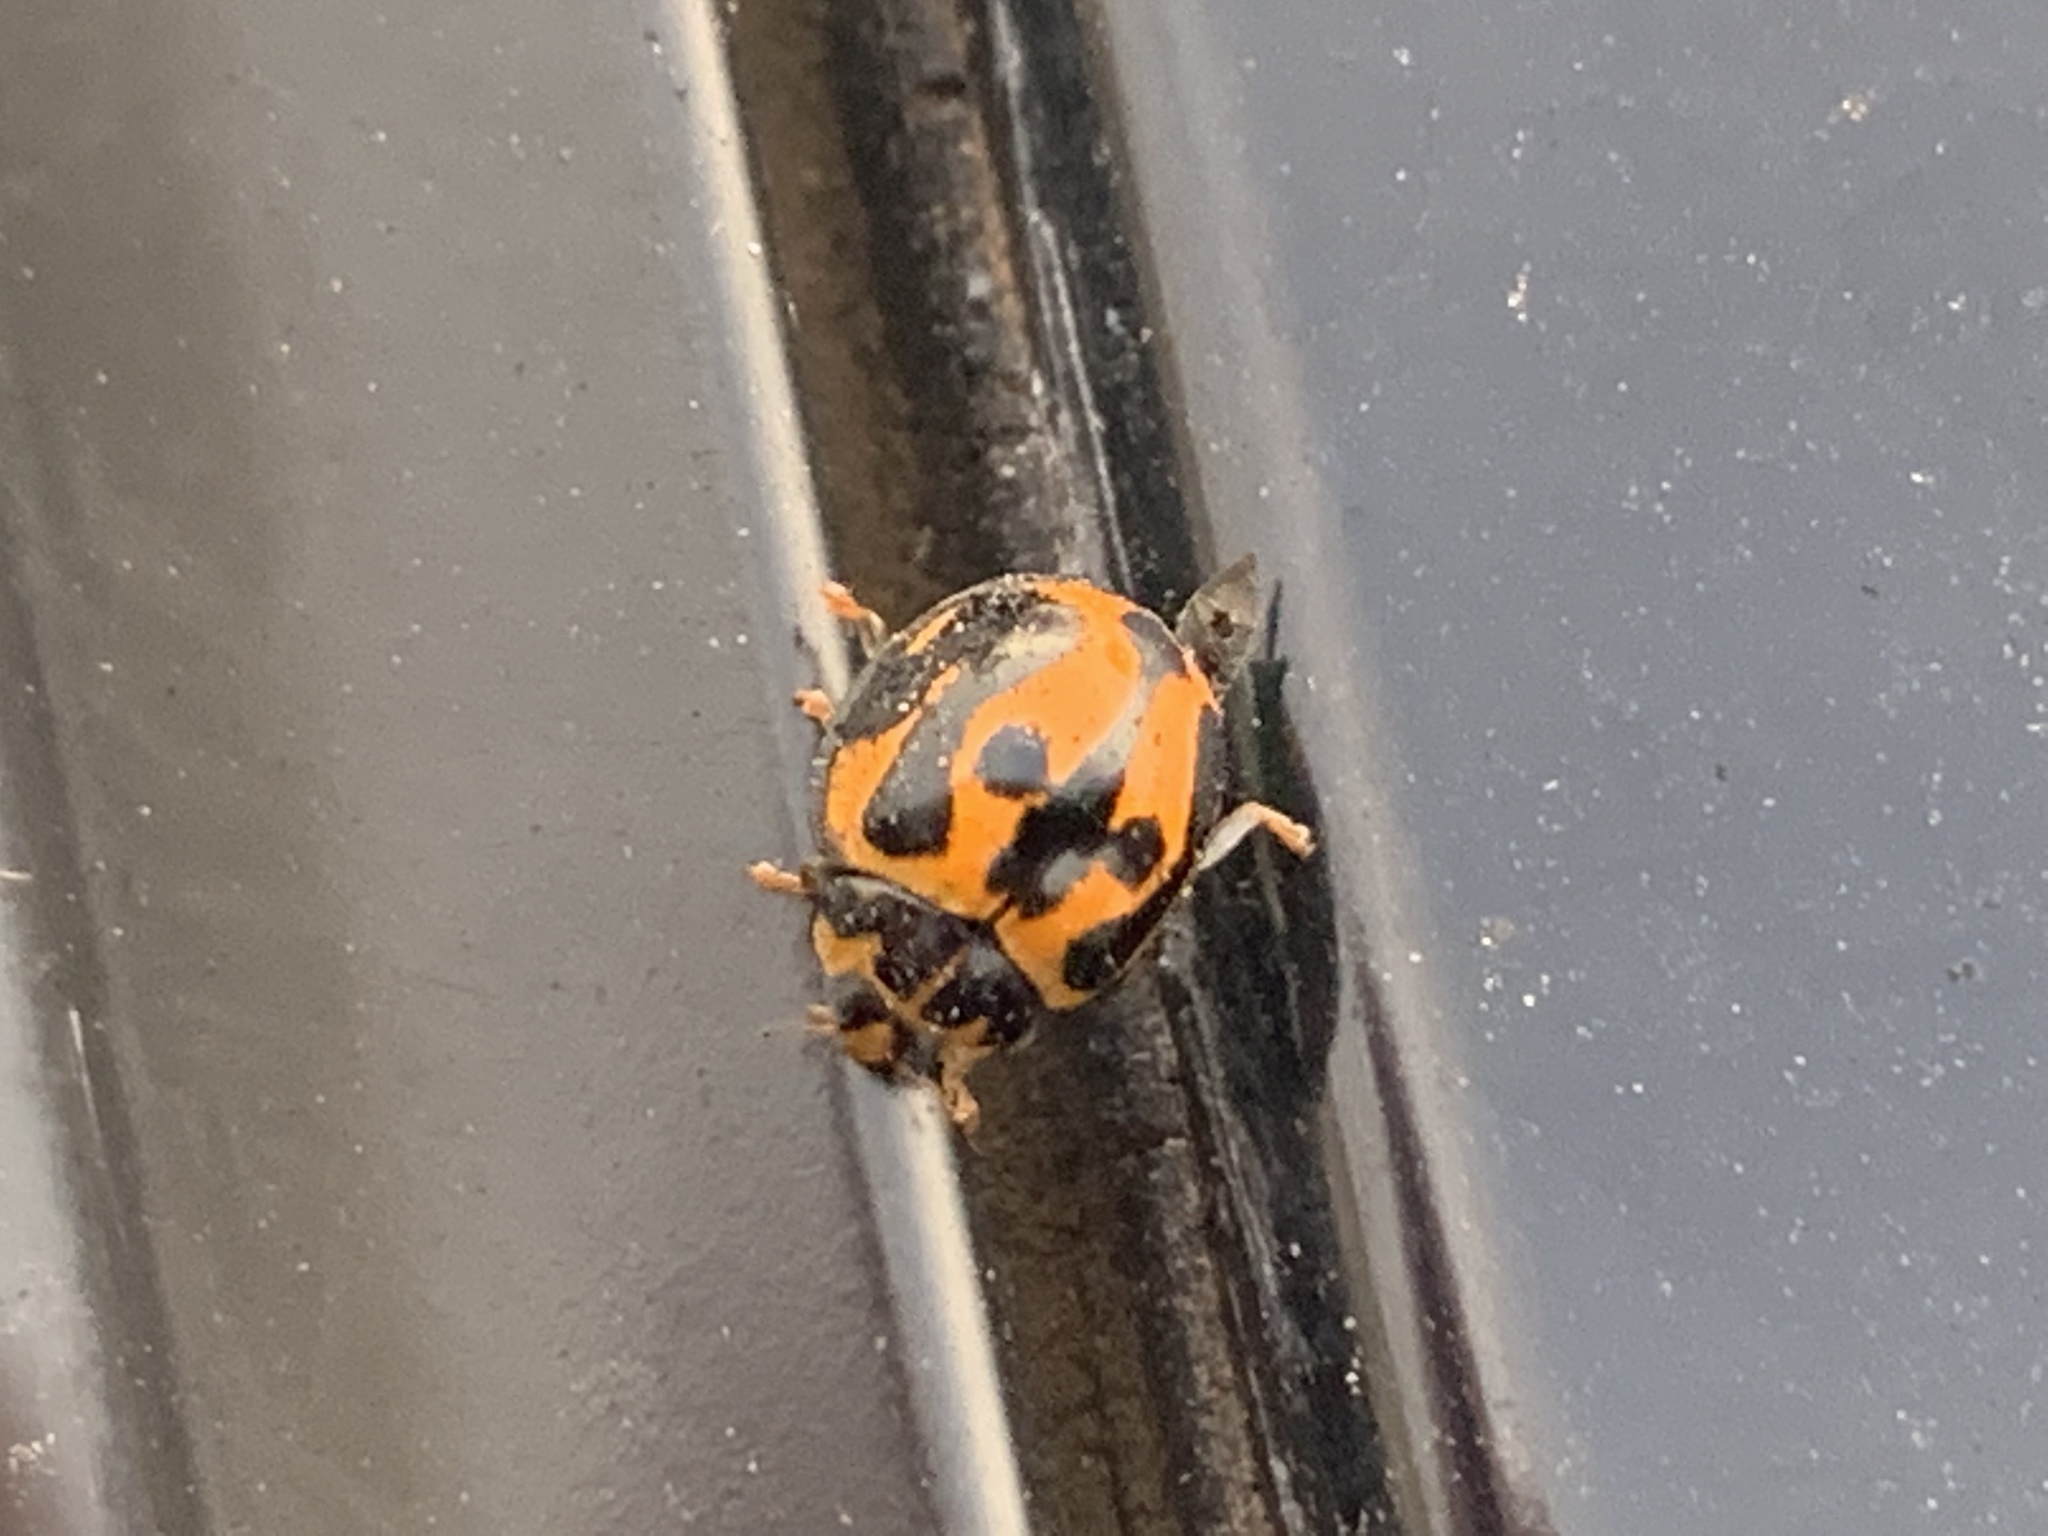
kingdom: Animalia
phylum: Arthropoda
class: Insecta
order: Coleoptera
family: Coccinellidae
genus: Coelophora
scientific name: Coelophora inaequalis
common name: Common australian lady beetle
